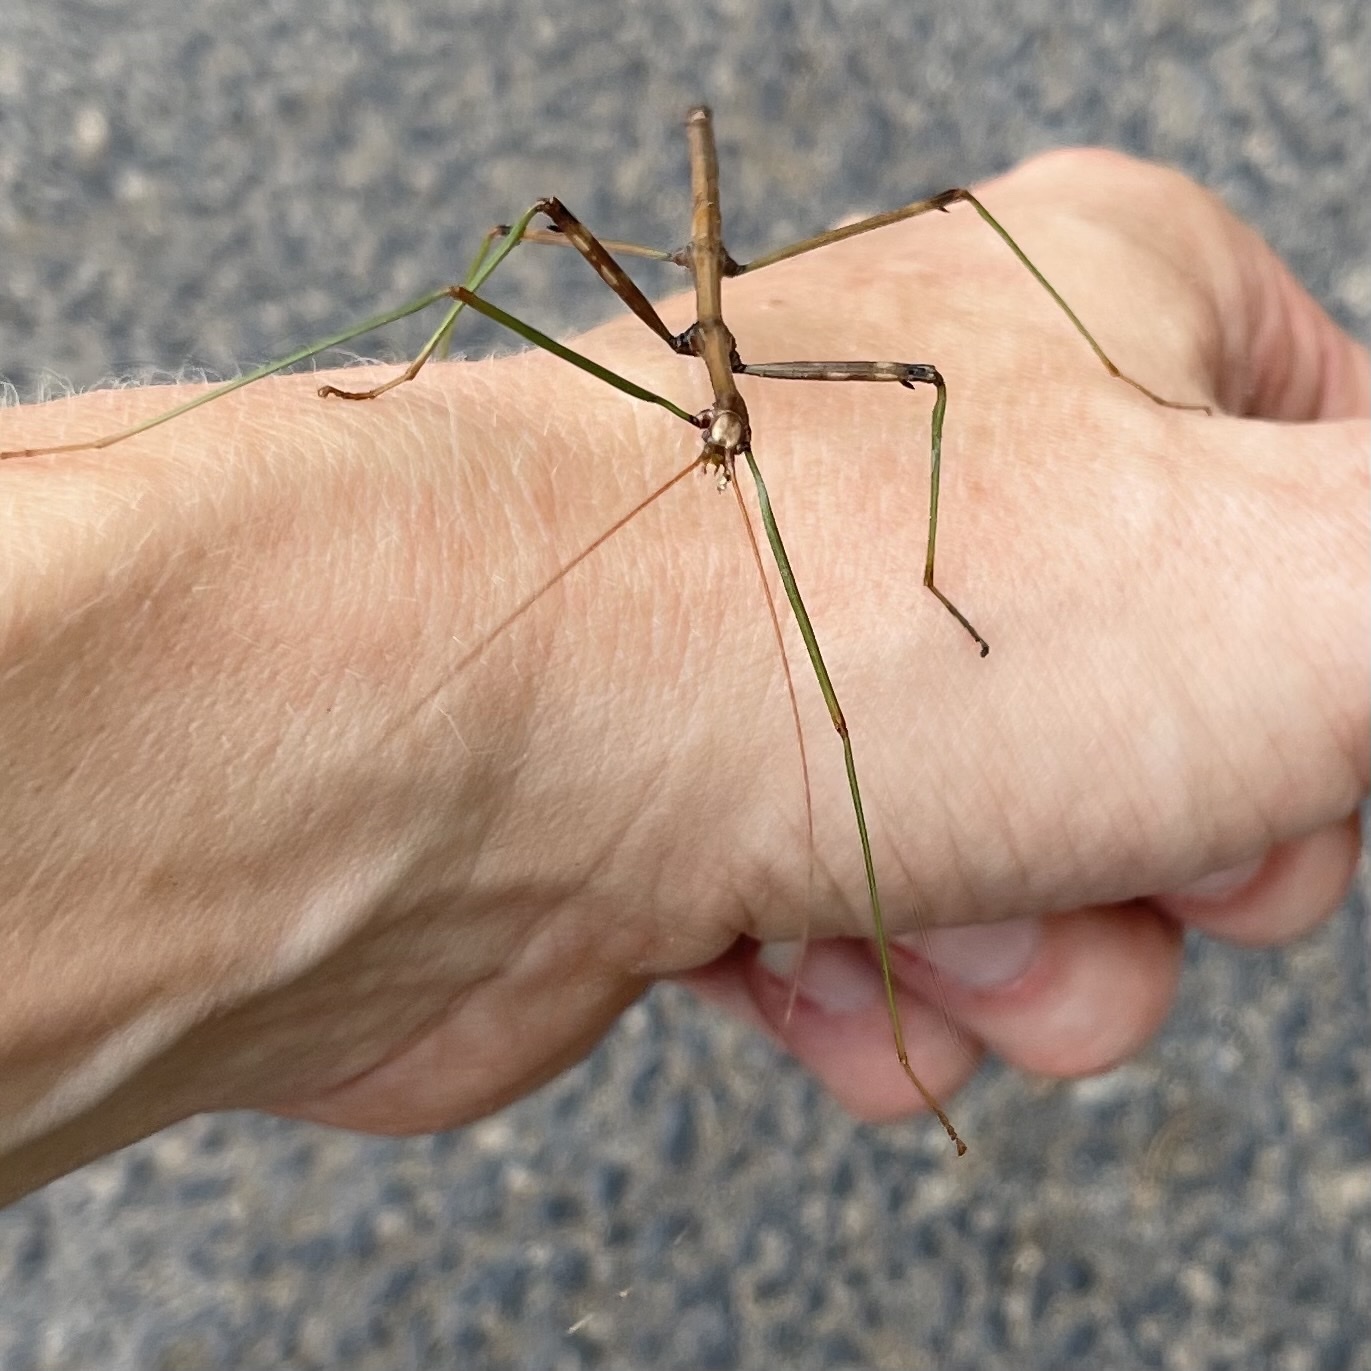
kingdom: Animalia
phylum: Arthropoda
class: Insecta
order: Phasmida
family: Diapheromeridae
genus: Diapheromera
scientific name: Diapheromera femorata
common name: Common american walkingstick
